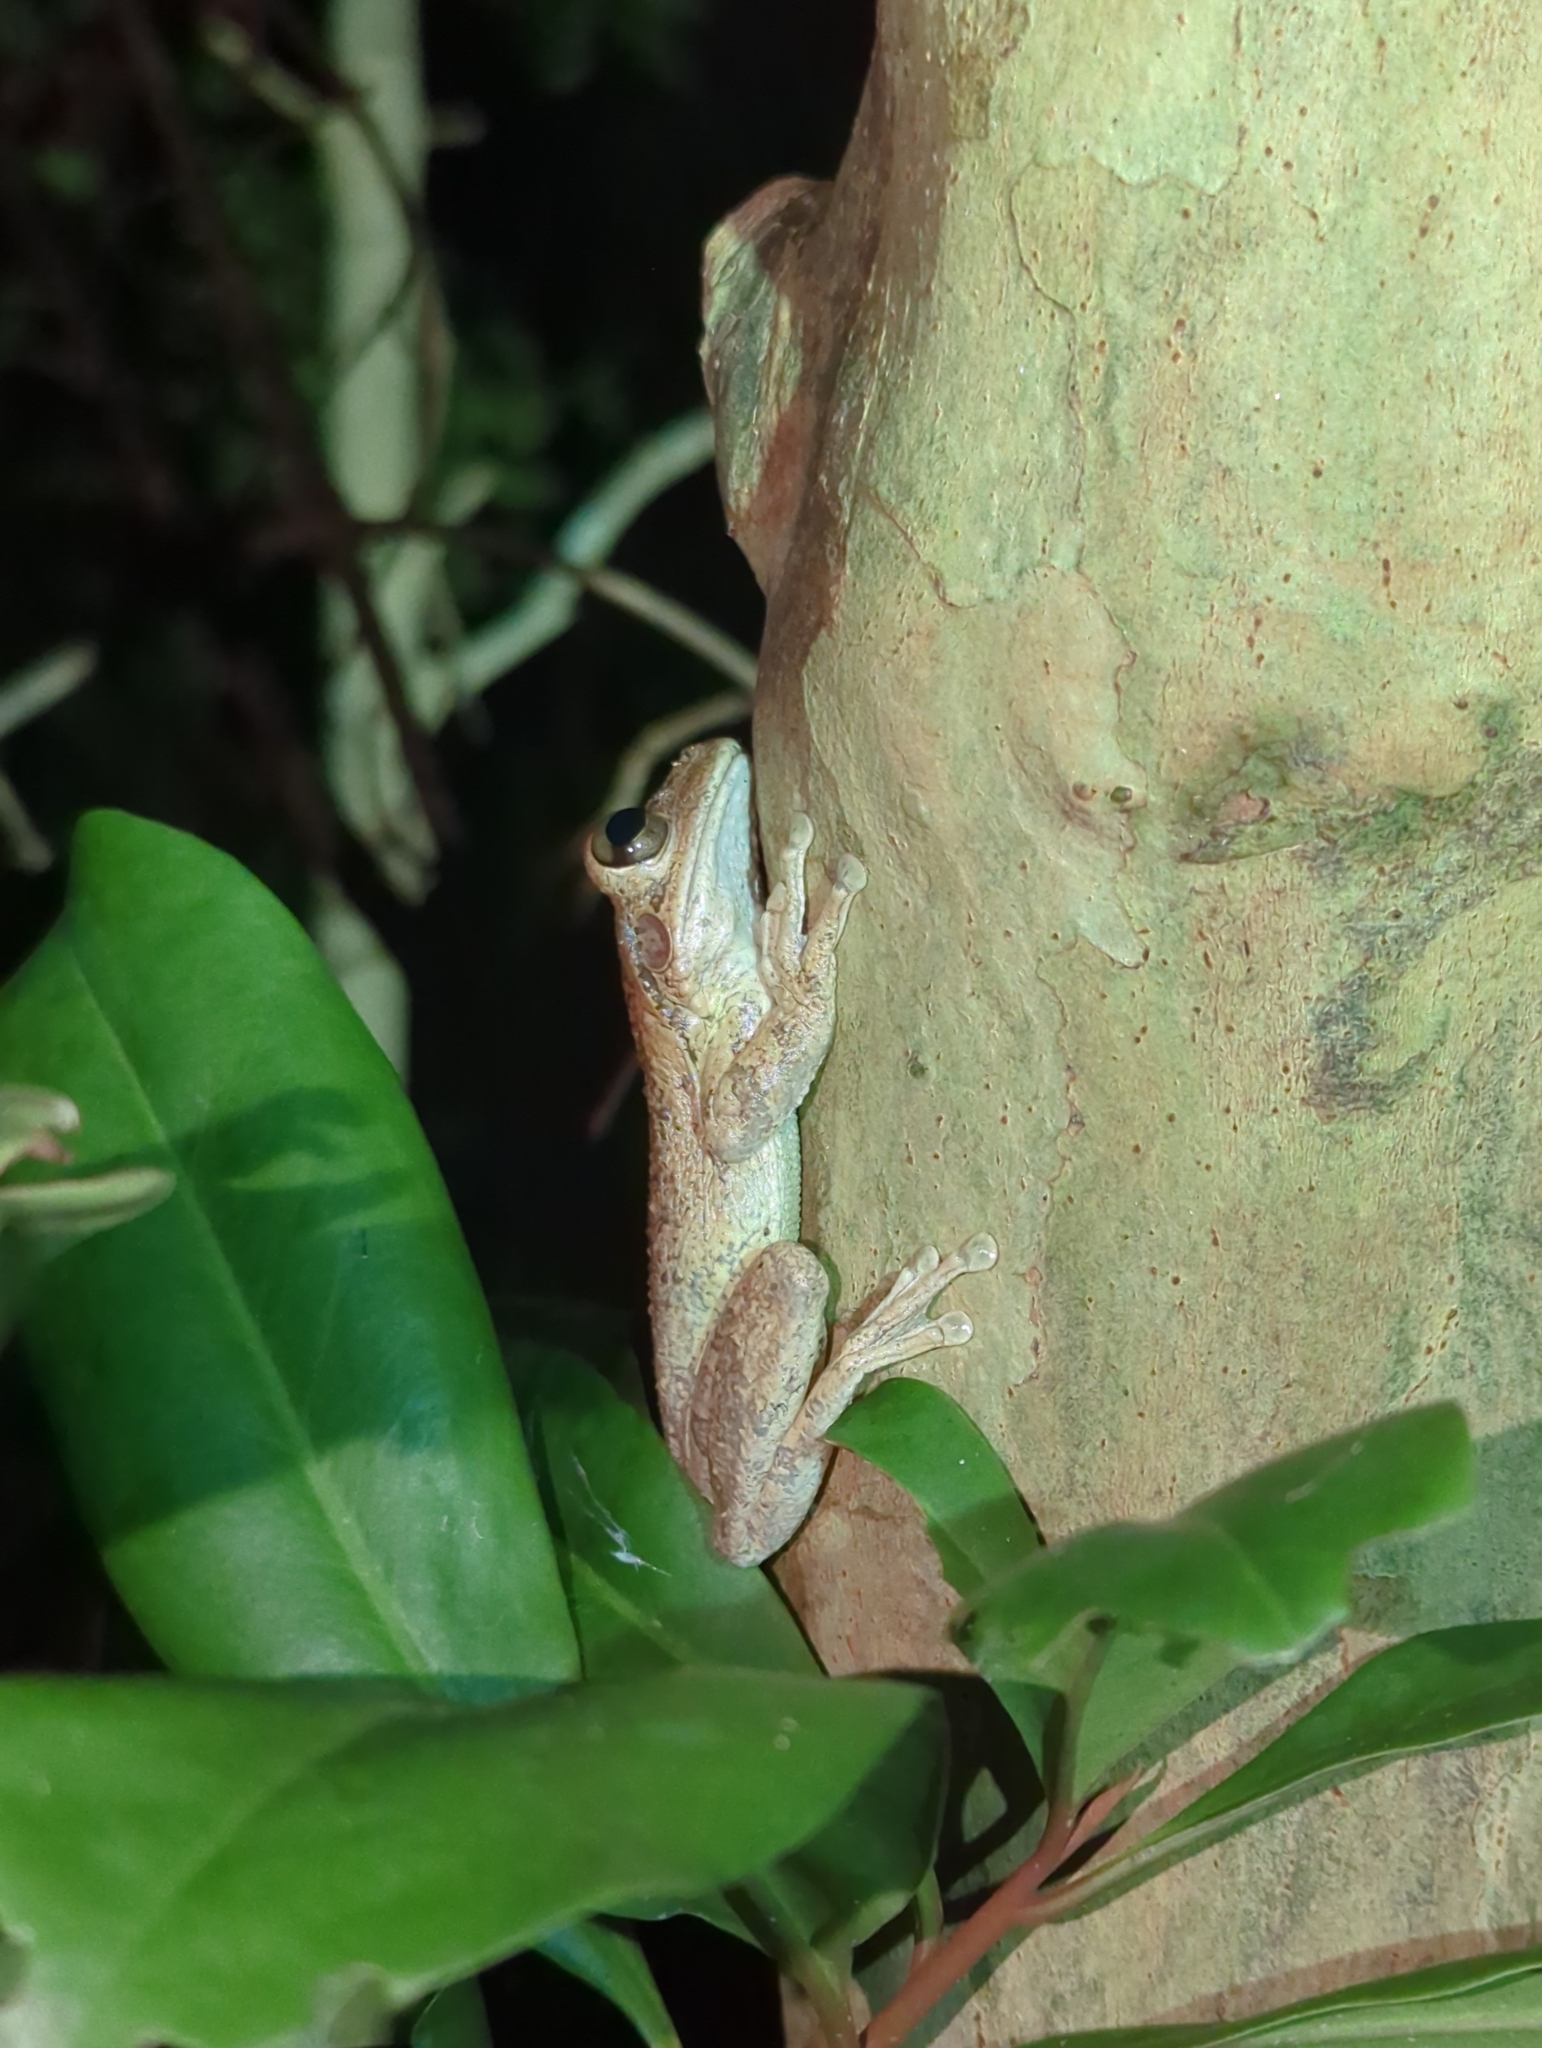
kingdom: Animalia
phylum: Chordata
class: Amphibia
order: Anura
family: Hylidae
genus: Osteopilus
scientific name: Osteopilus septentrionalis
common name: Cuban treefrog
